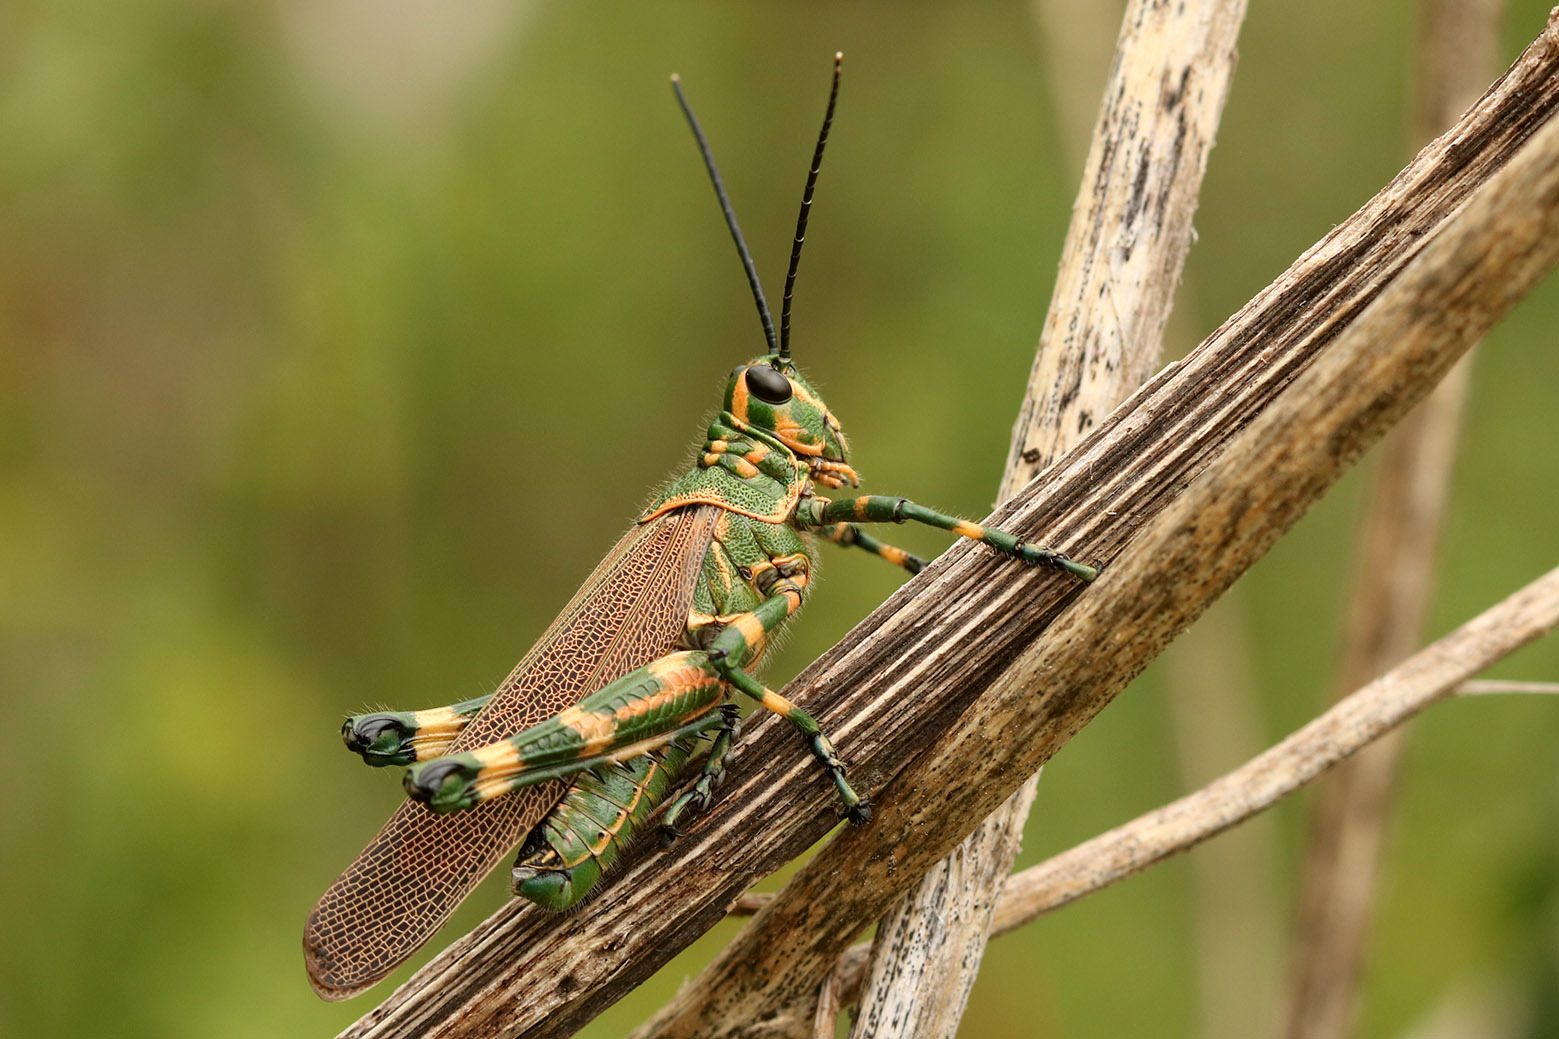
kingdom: Animalia
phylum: Arthropoda
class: Insecta
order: Orthoptera
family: Romaleidae
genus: Chromacris
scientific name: Chromacris speciosa
